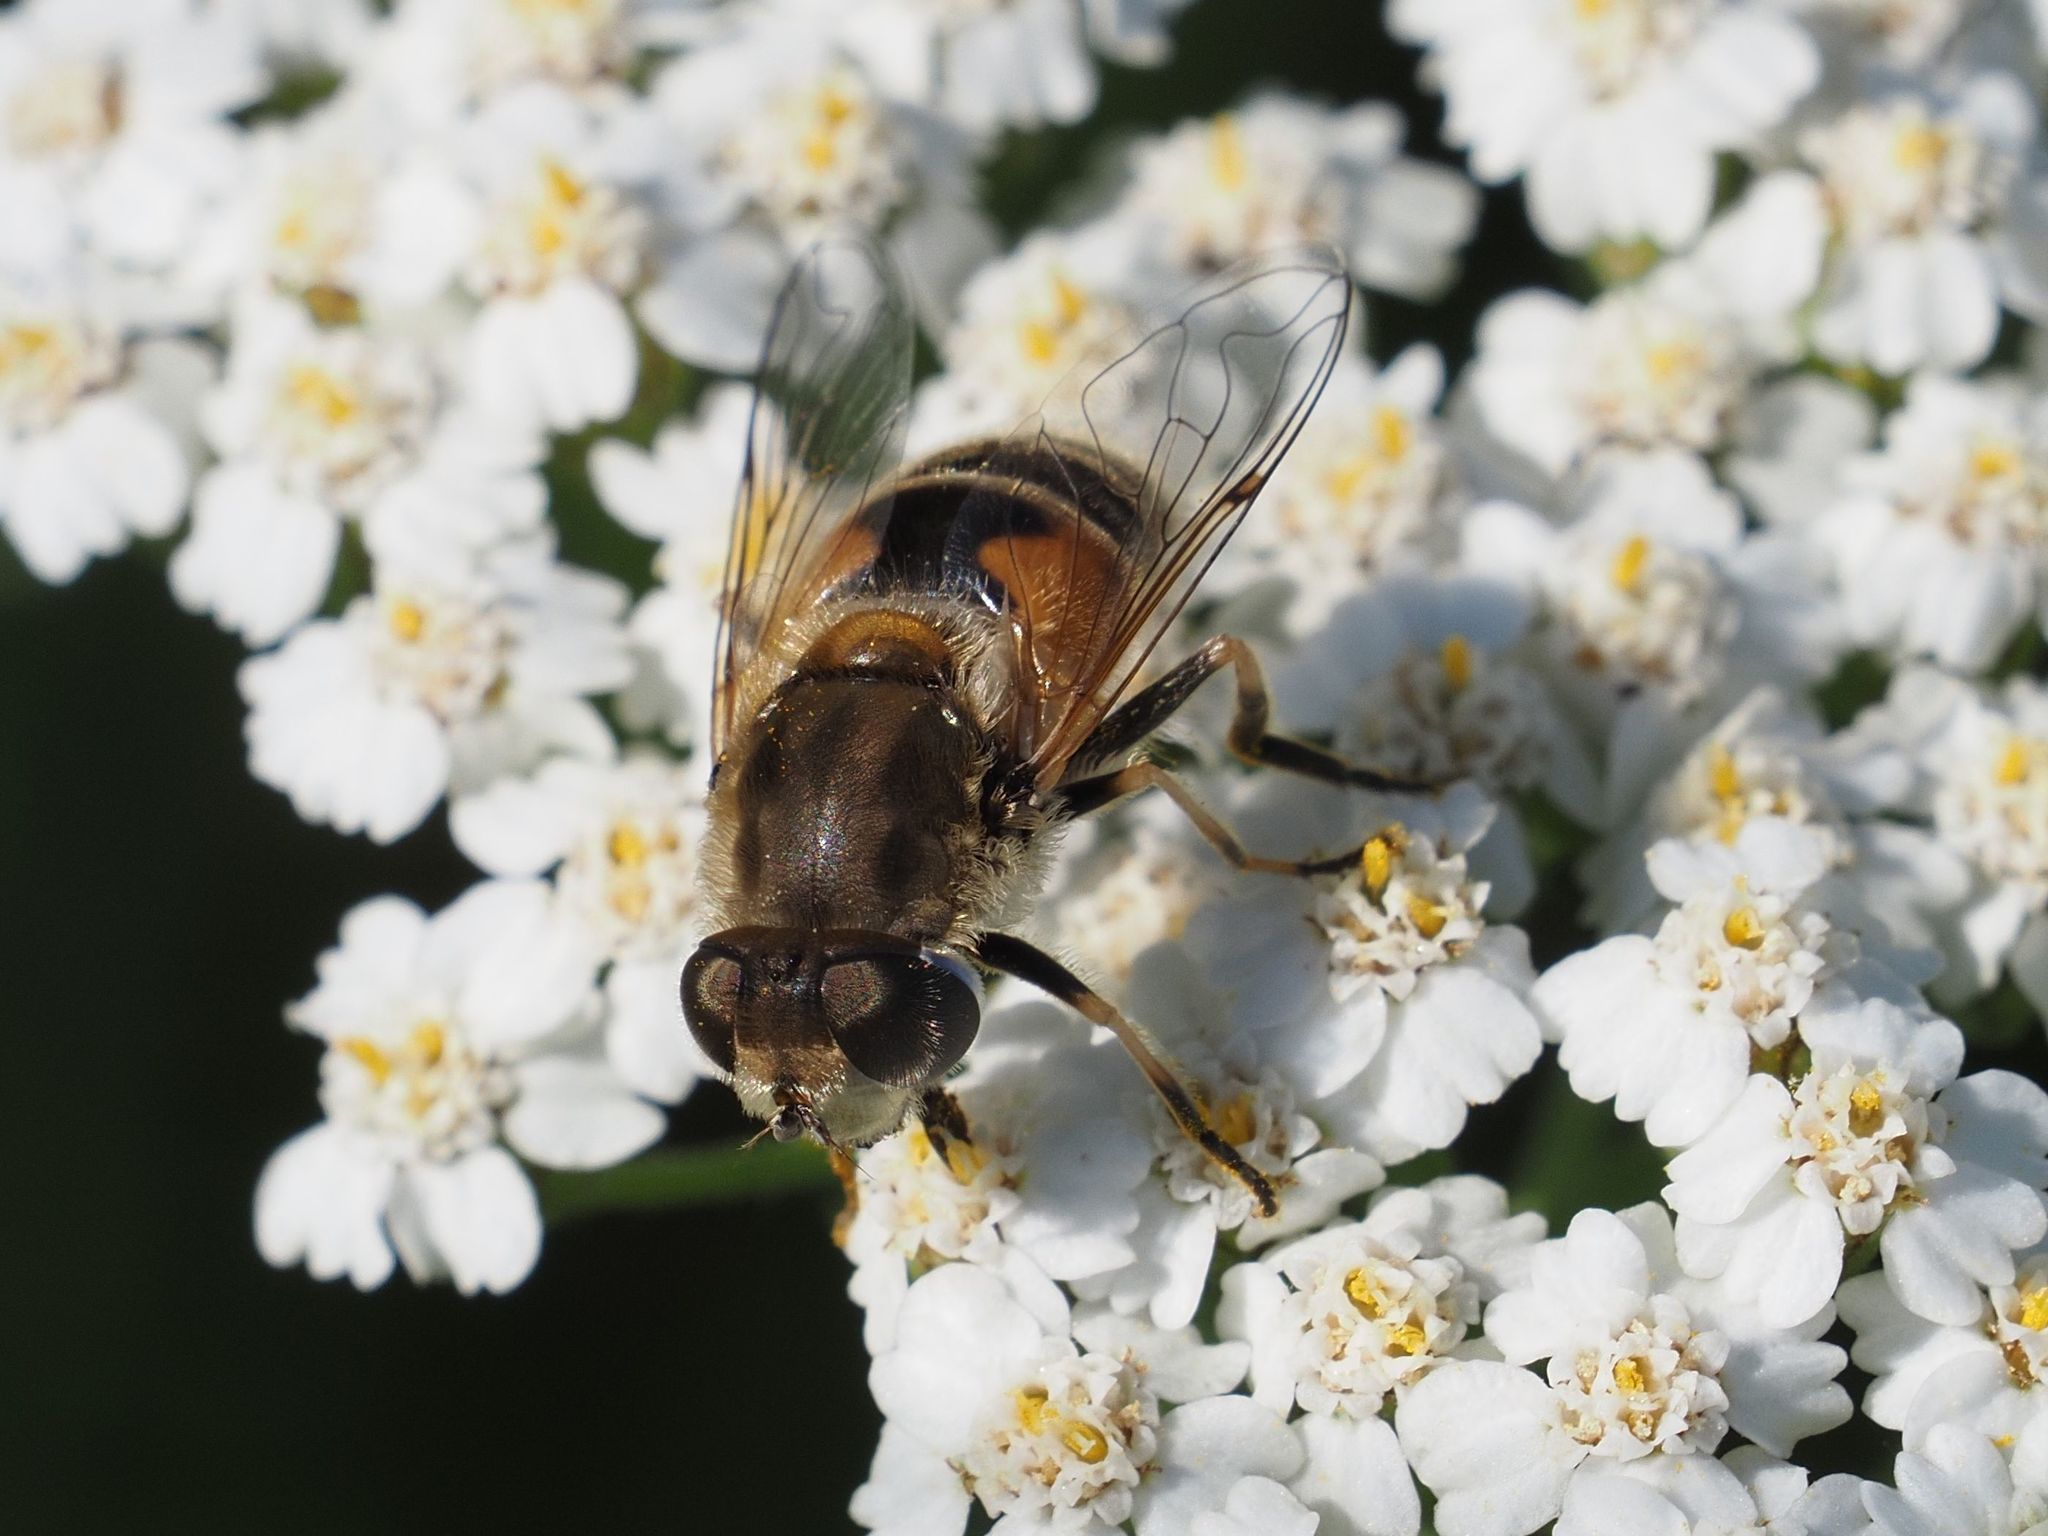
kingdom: Animalia
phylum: Arthropoda
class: Insecta
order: Diptera
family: Syrphidae
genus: Eristalis
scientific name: Eristalis arbustorum
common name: Hover fly
